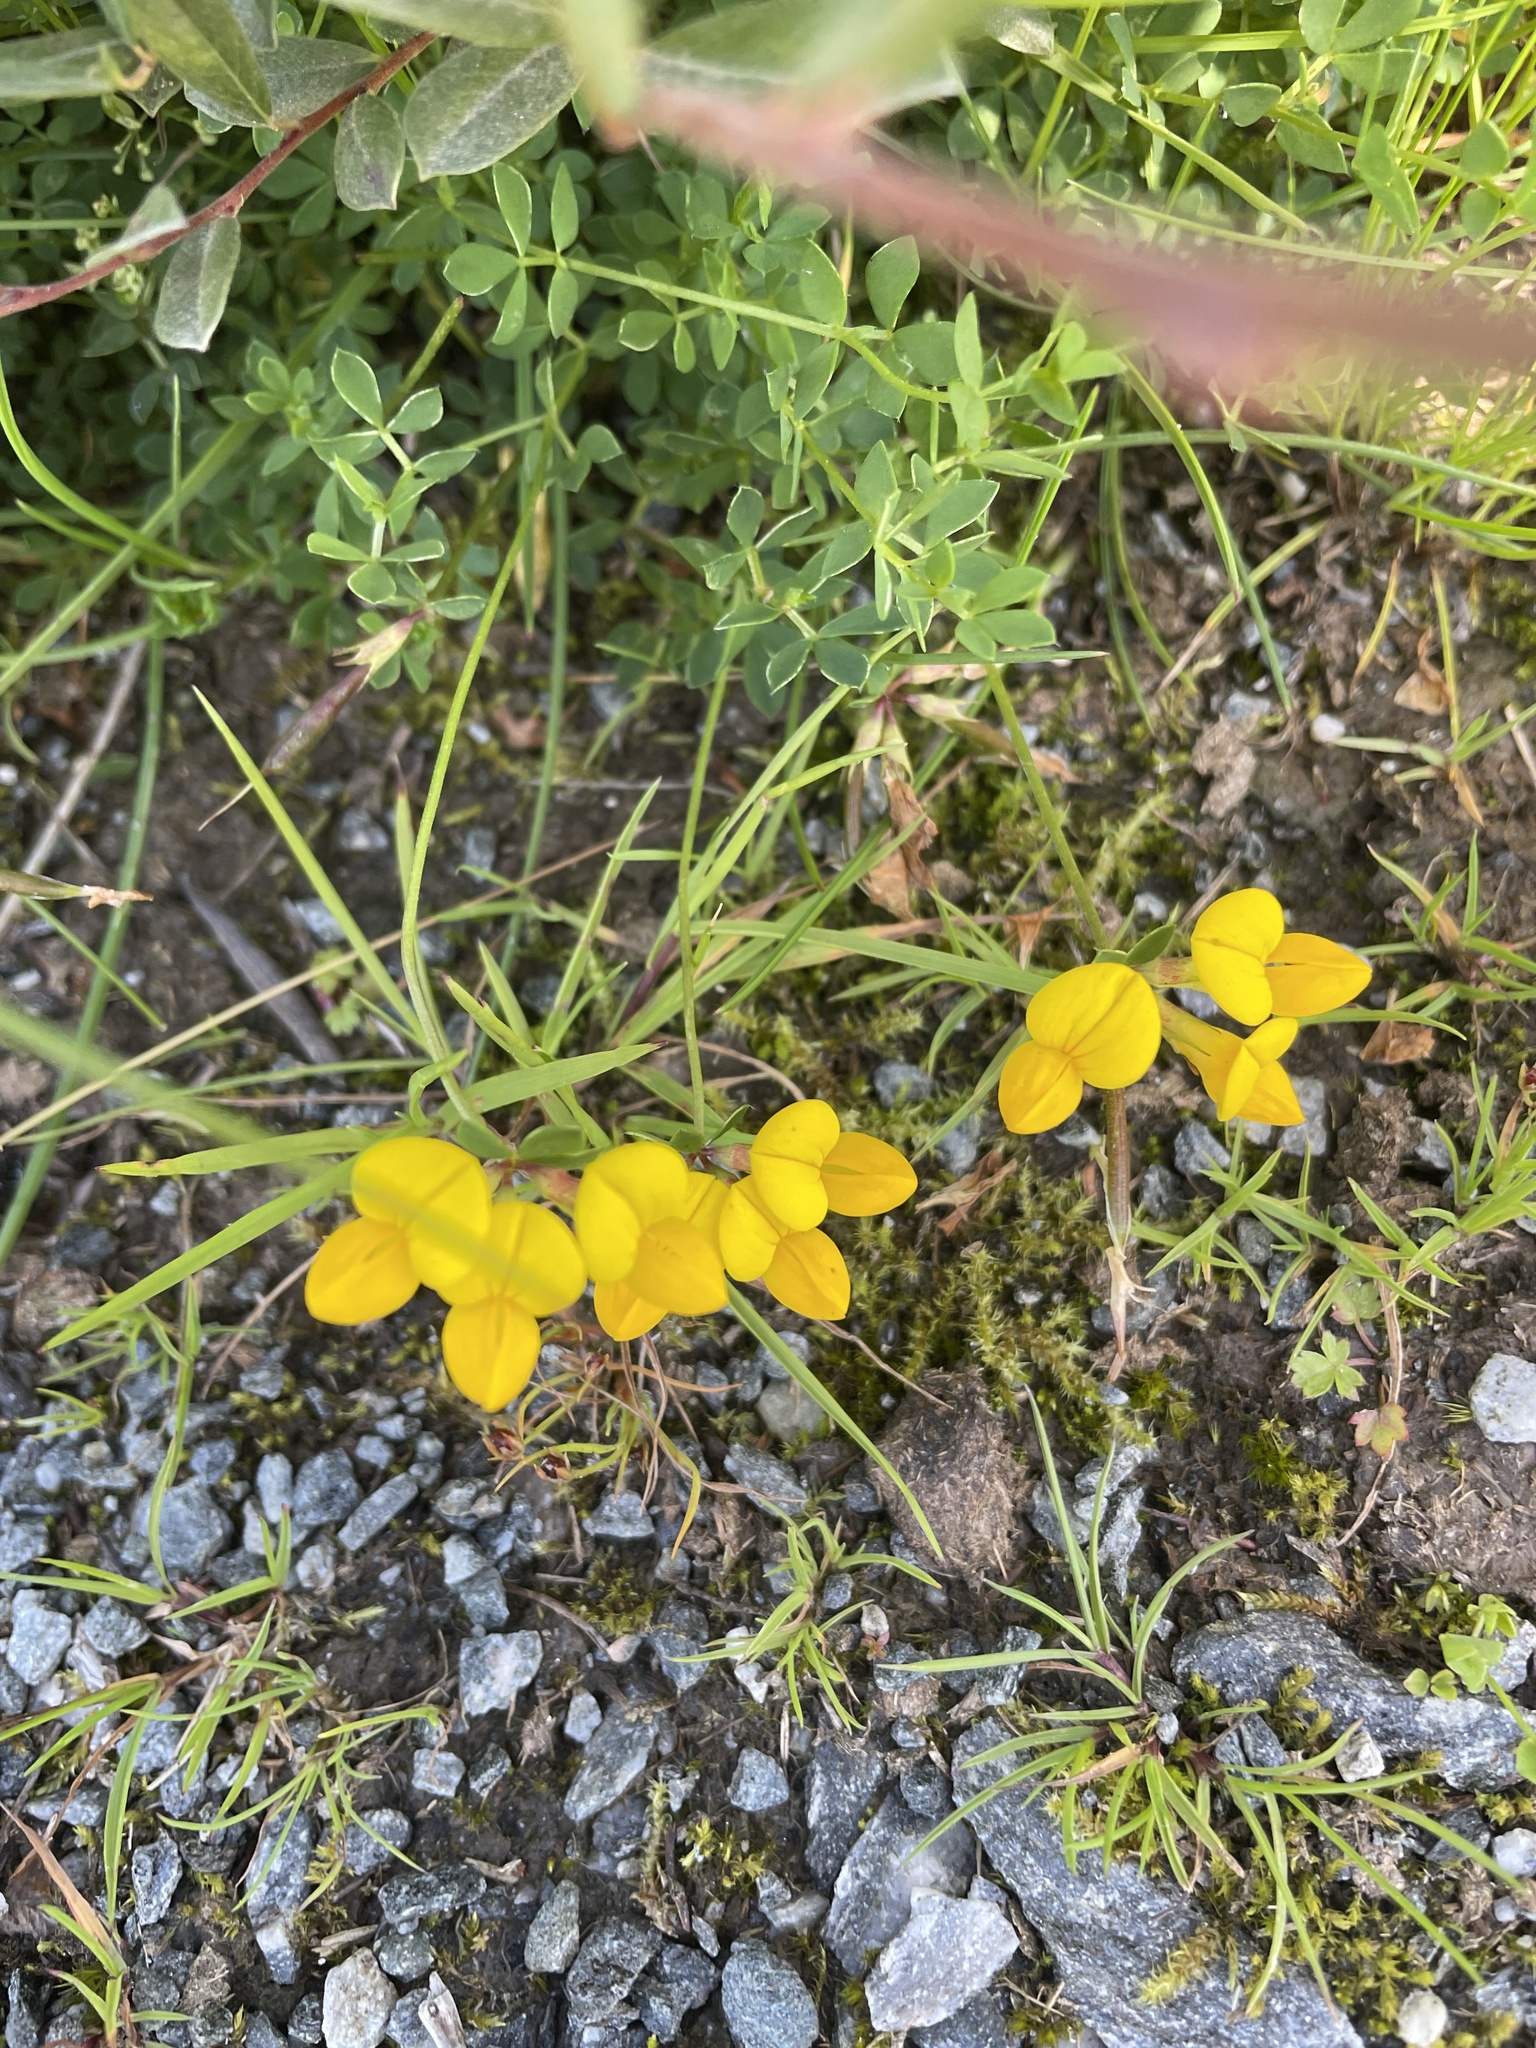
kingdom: Plantae
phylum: Tracheophyta
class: Magnoliopsida
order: Fabales
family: Fabaceae
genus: Lotus
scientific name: Lotus corniculatus
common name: Common bird's-foot-trefoil
